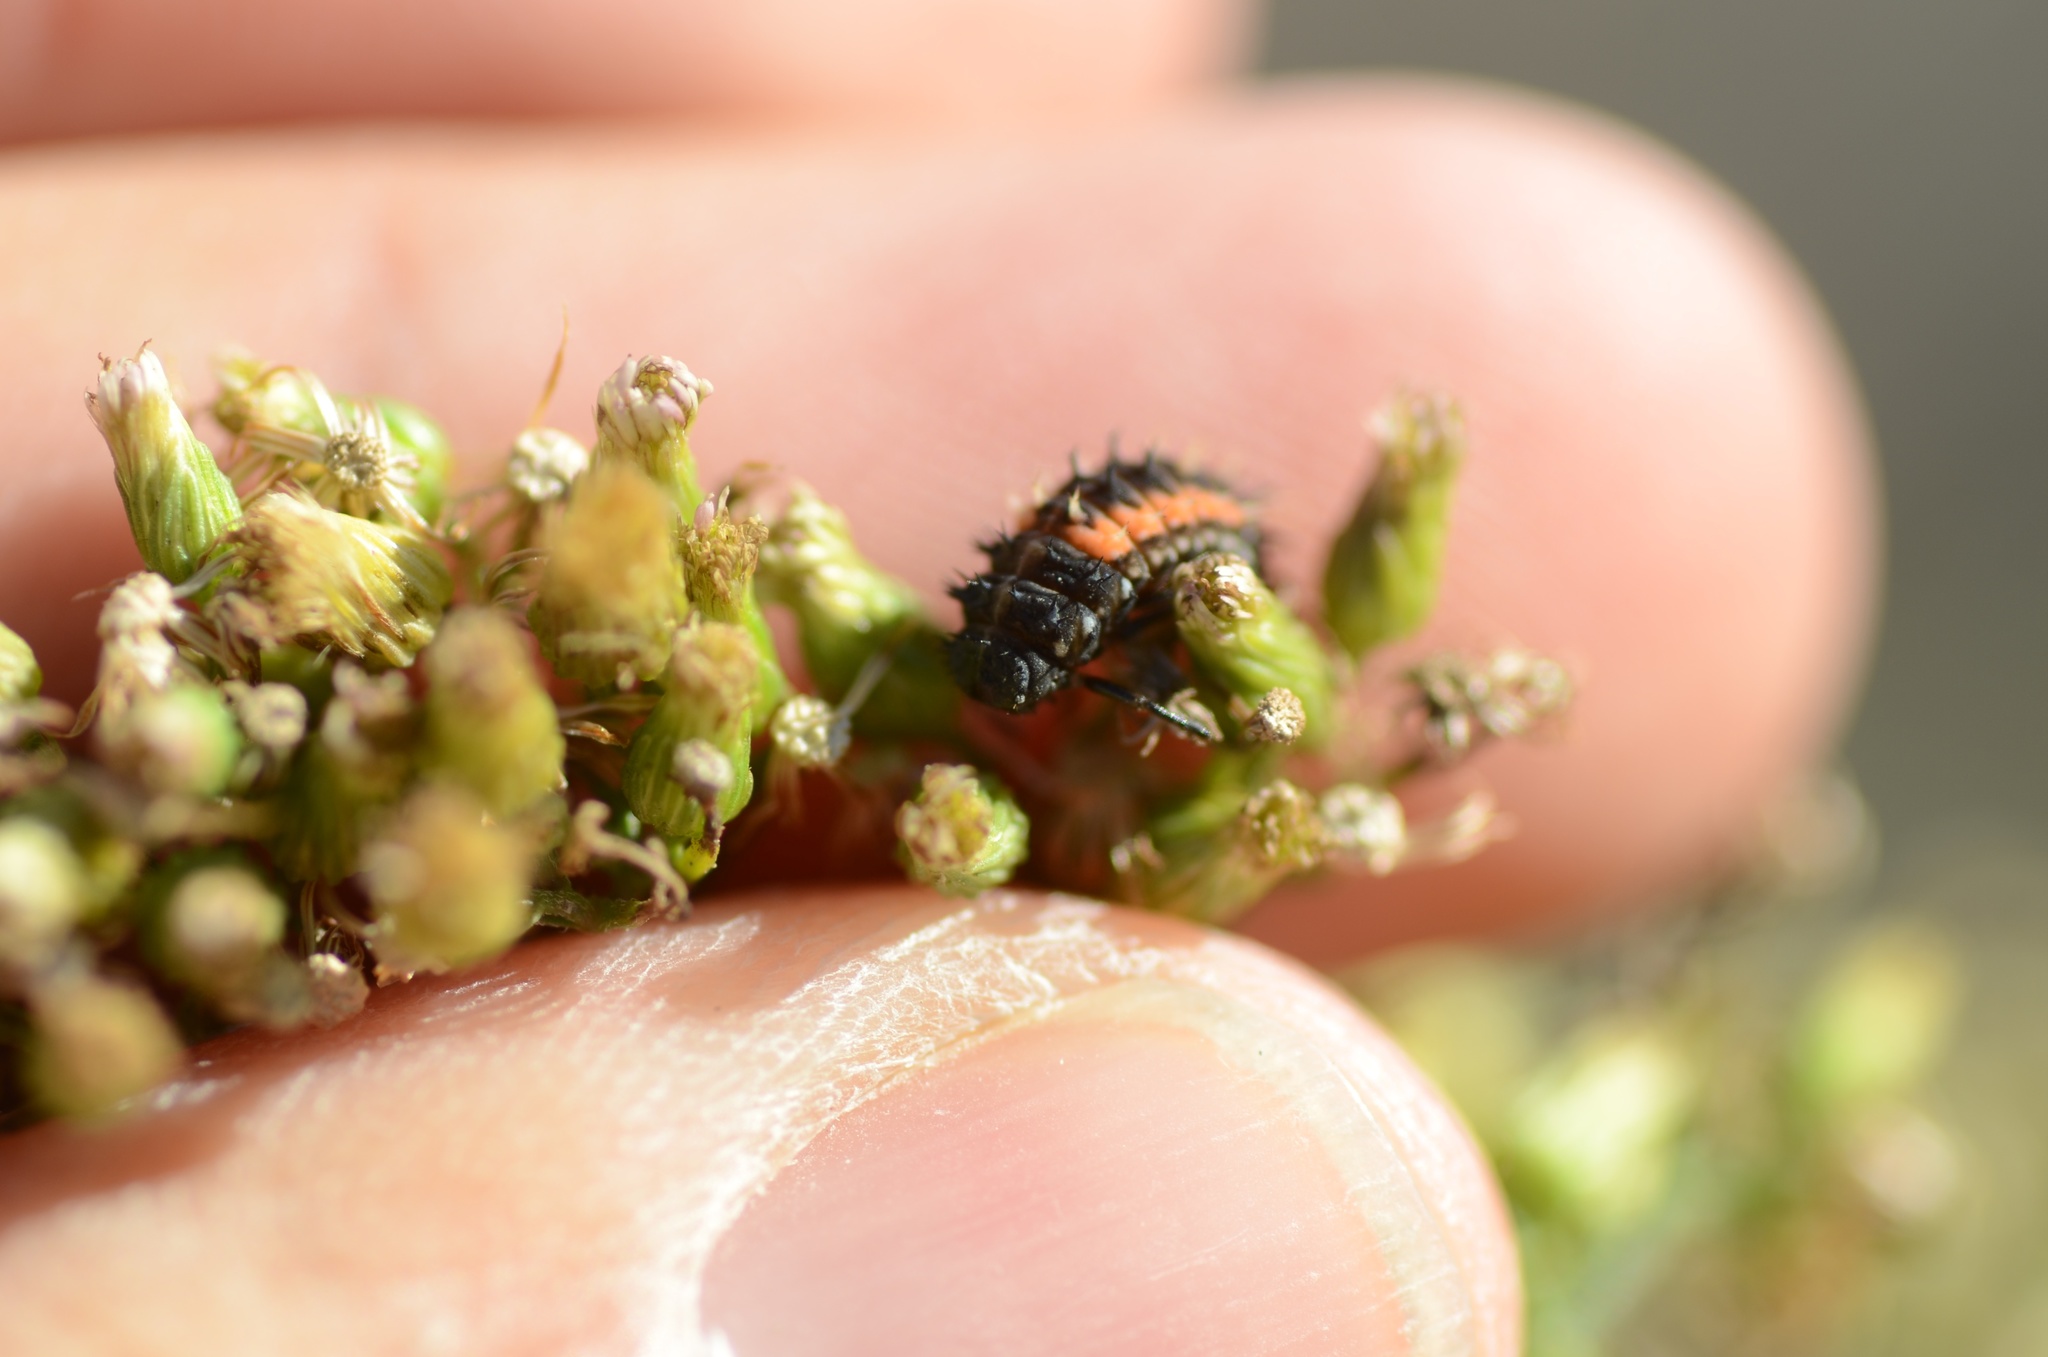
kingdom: Animalia
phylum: Arthropoda
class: Insecta
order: Coleoptera
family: Coccinellidae
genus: Harmonia
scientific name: Harmonia axyridis
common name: Harlequin ladybird
